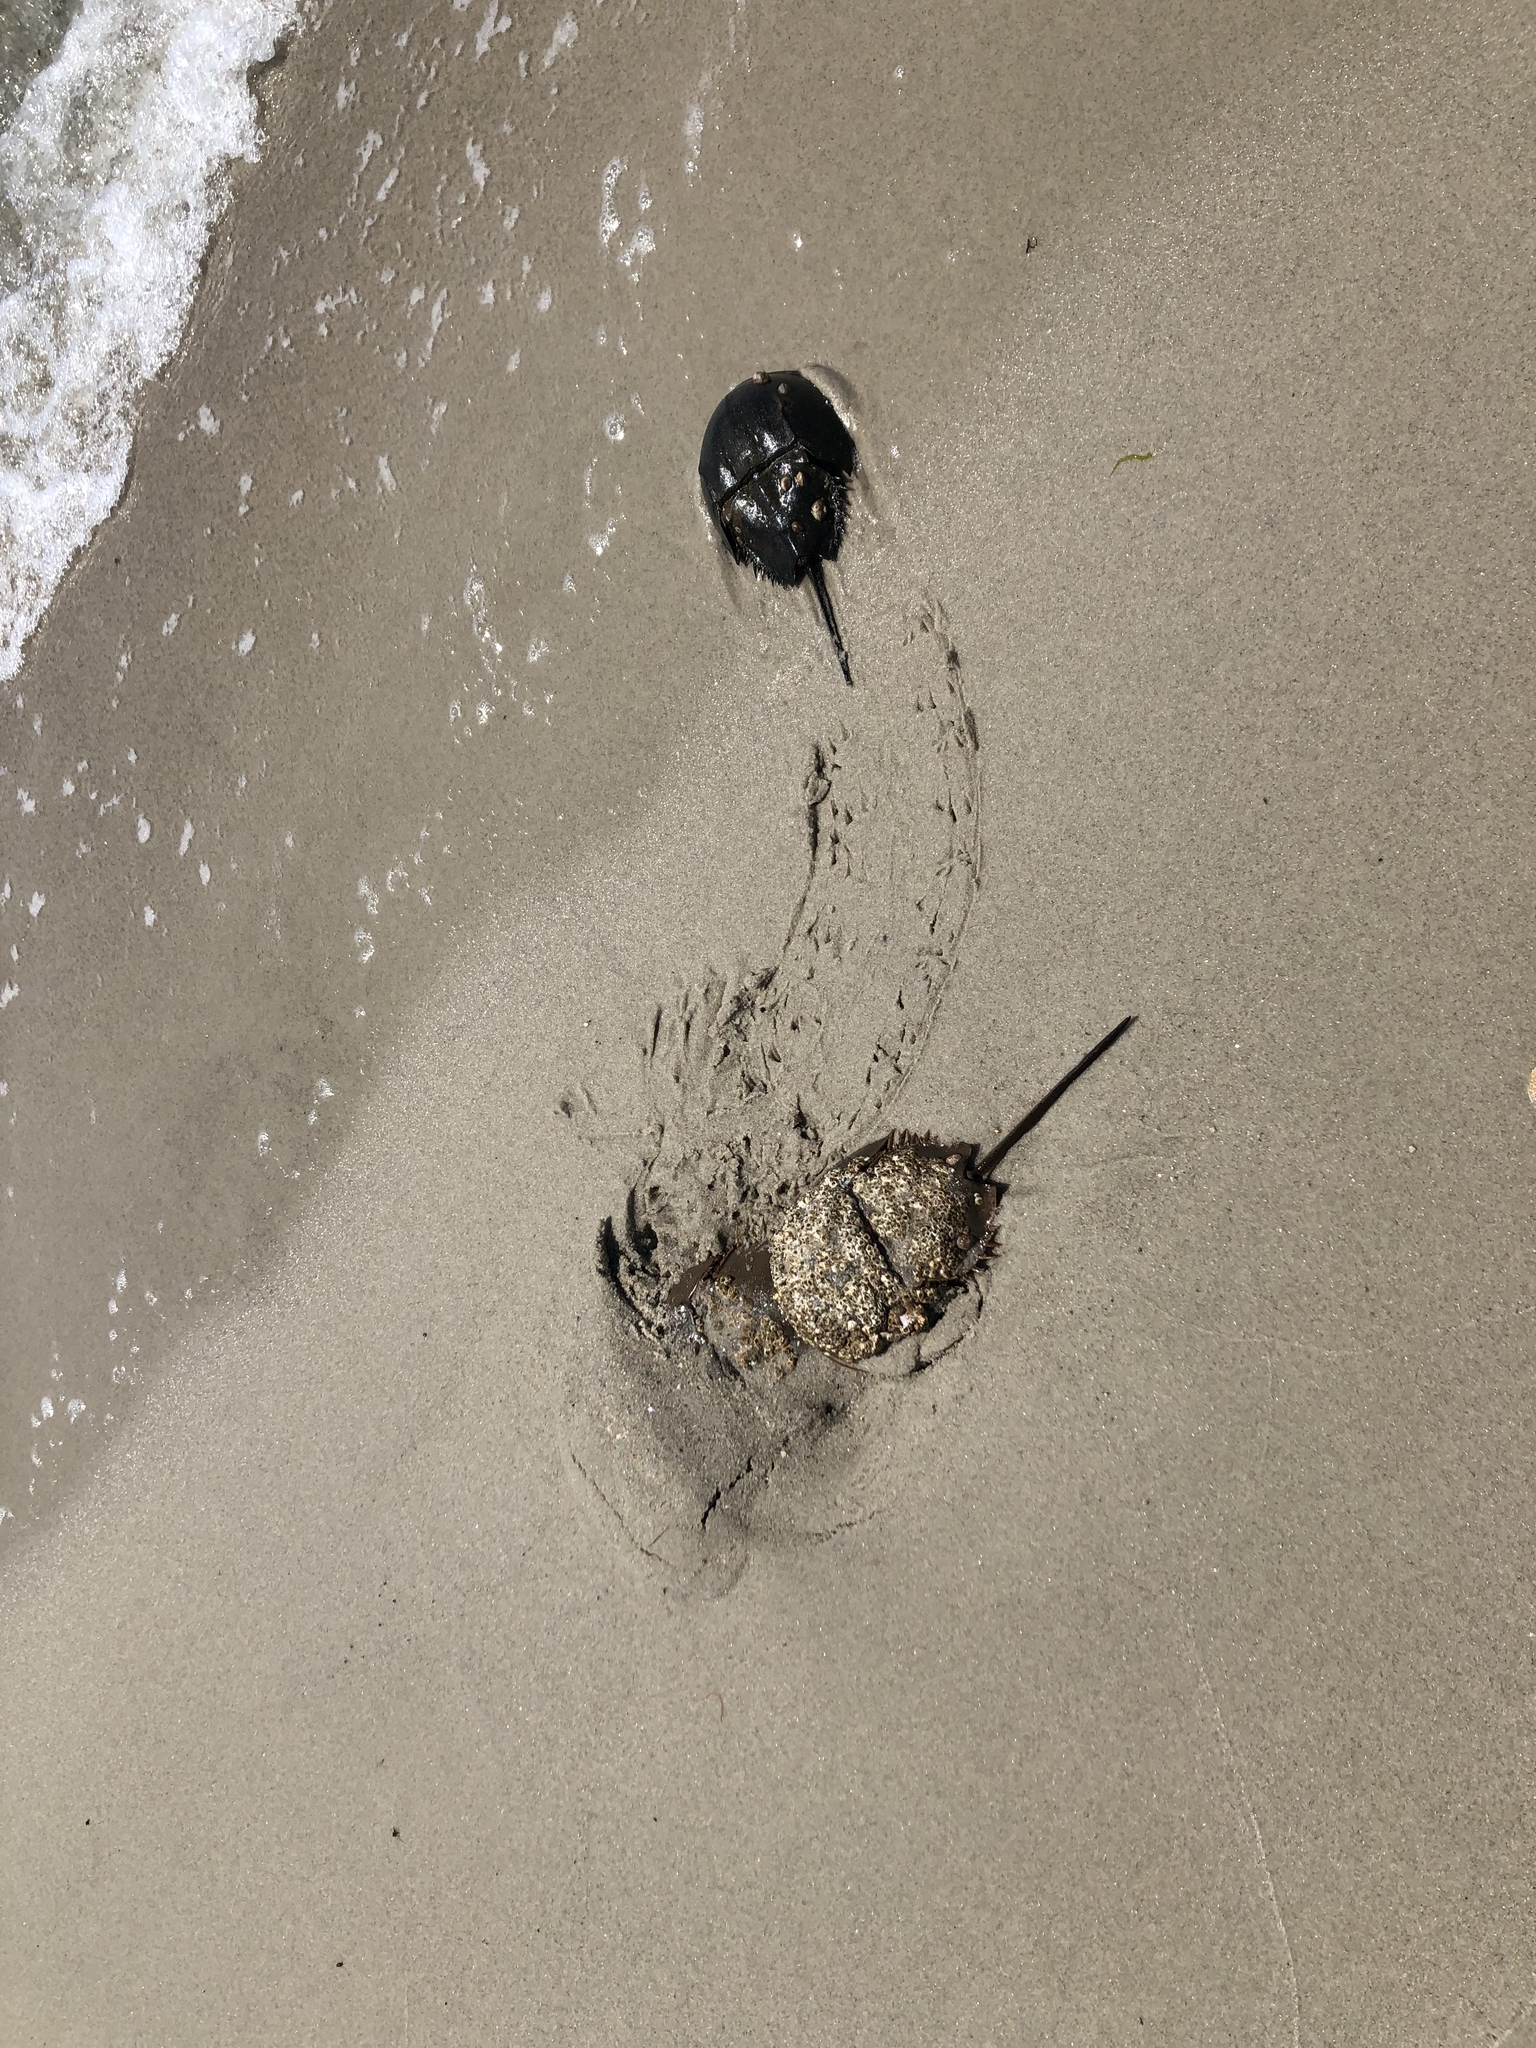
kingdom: Animalia
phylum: Arthropoda
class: Merostomata
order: Xiphosurida
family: Limulidae
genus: Limulus
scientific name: Limulus polyphemus
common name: Horseshoe crab
